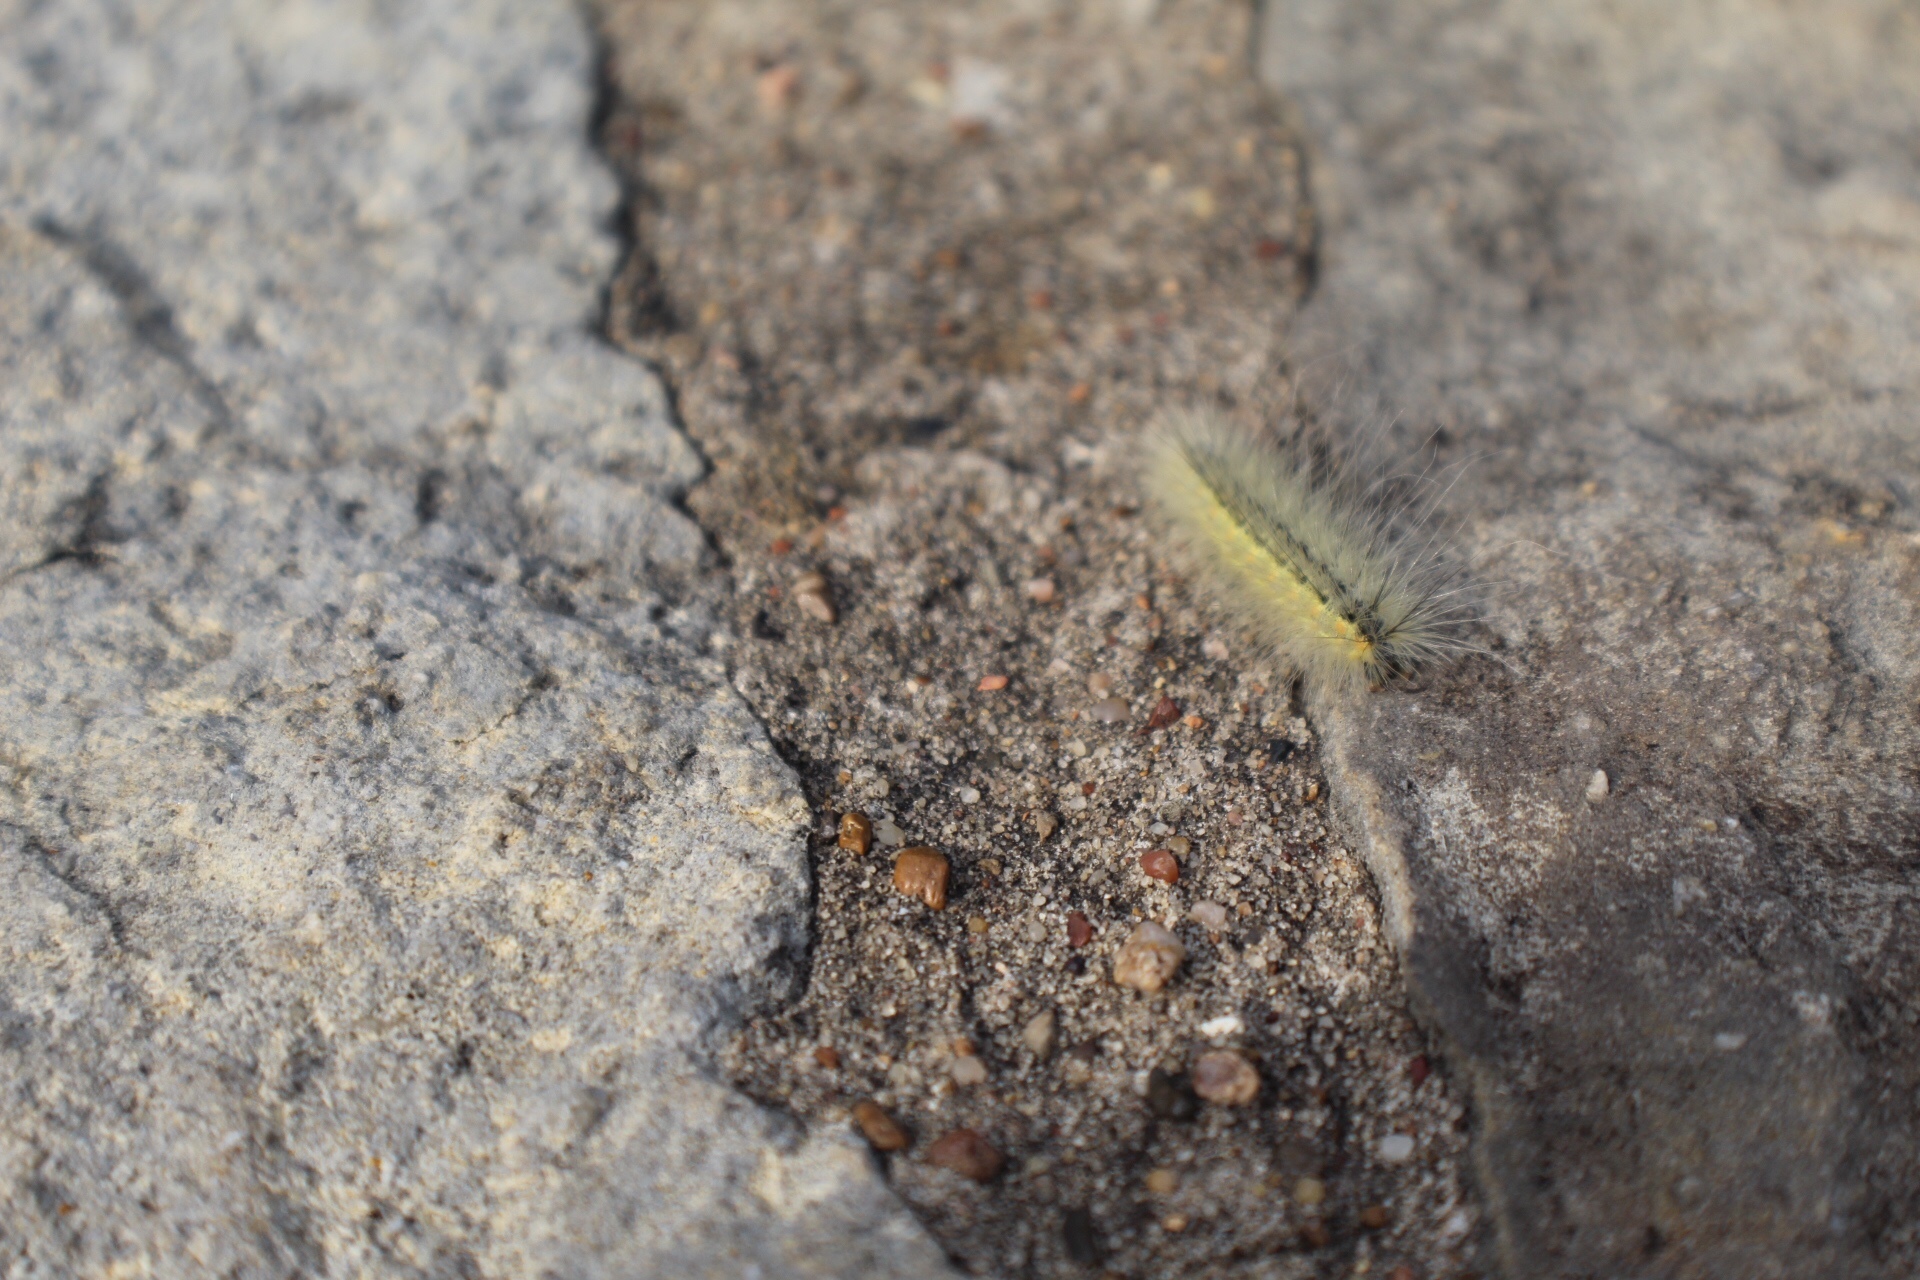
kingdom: Animalia
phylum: Arthropoda
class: Insecta
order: Lepidoptera
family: Erebidae
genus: Hyphantria
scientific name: Hyphantria cunea
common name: American white moth
